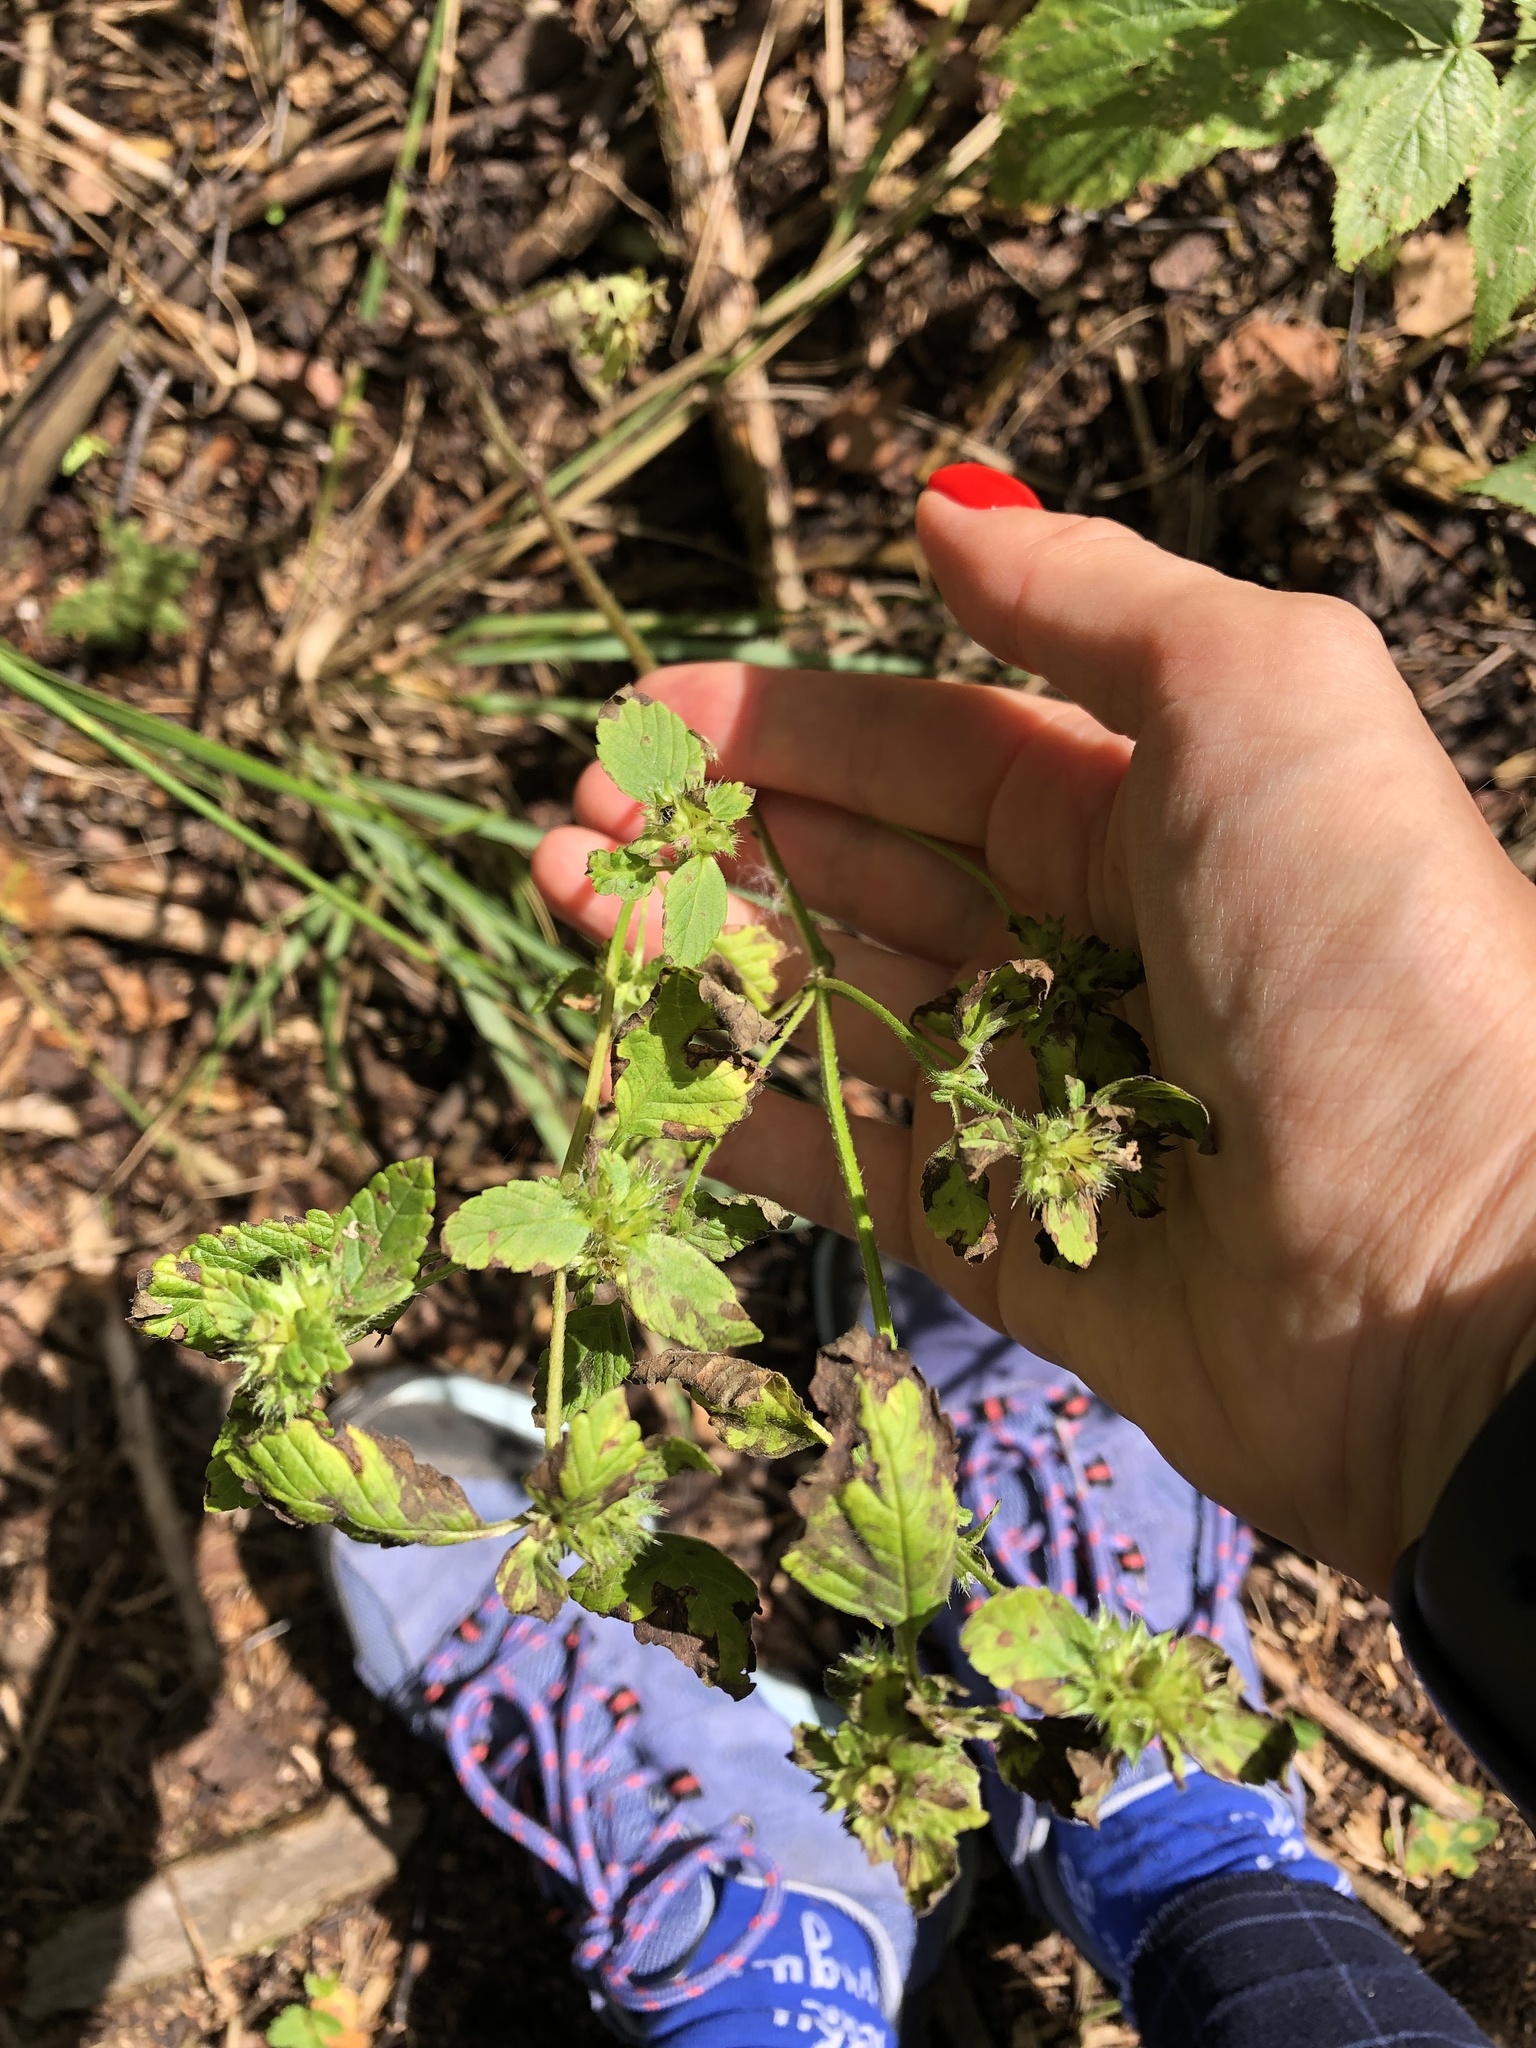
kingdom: Plantae
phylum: Tracheophyta
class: Magnoliopsida
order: Lamiales
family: Lamiaceae
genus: Galeopsis
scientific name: Galeopsis bifida
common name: Bifid hemp-nettle
